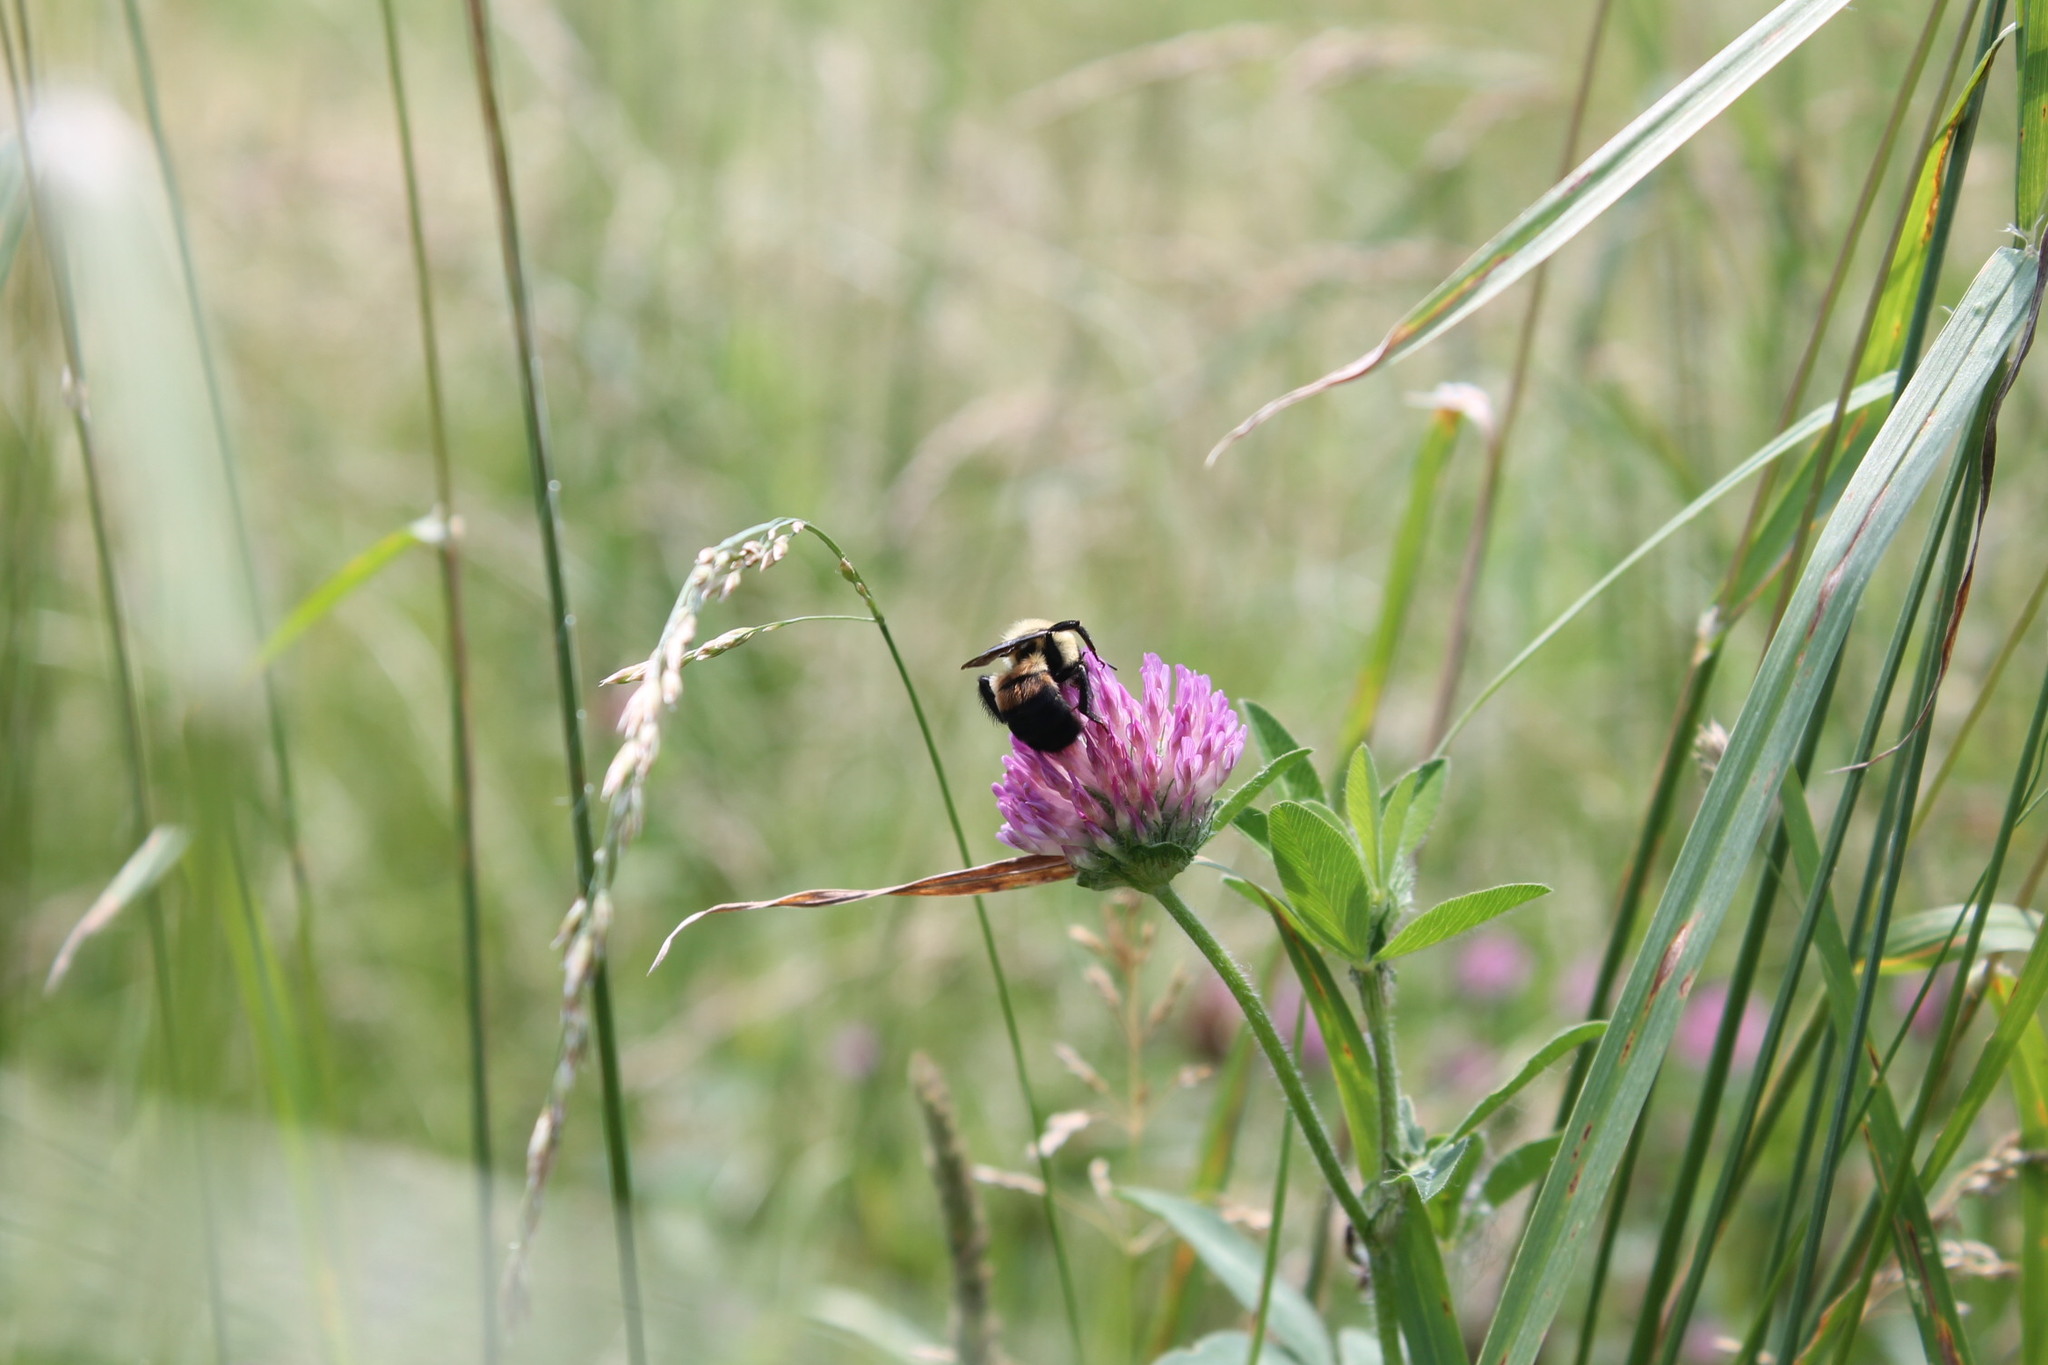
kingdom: Animalia
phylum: Arthropoda
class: Insecta
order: Hymenoptera
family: Apidae
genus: Bombus
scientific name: Bombus griseocollis
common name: Brown-belted bumble bee
